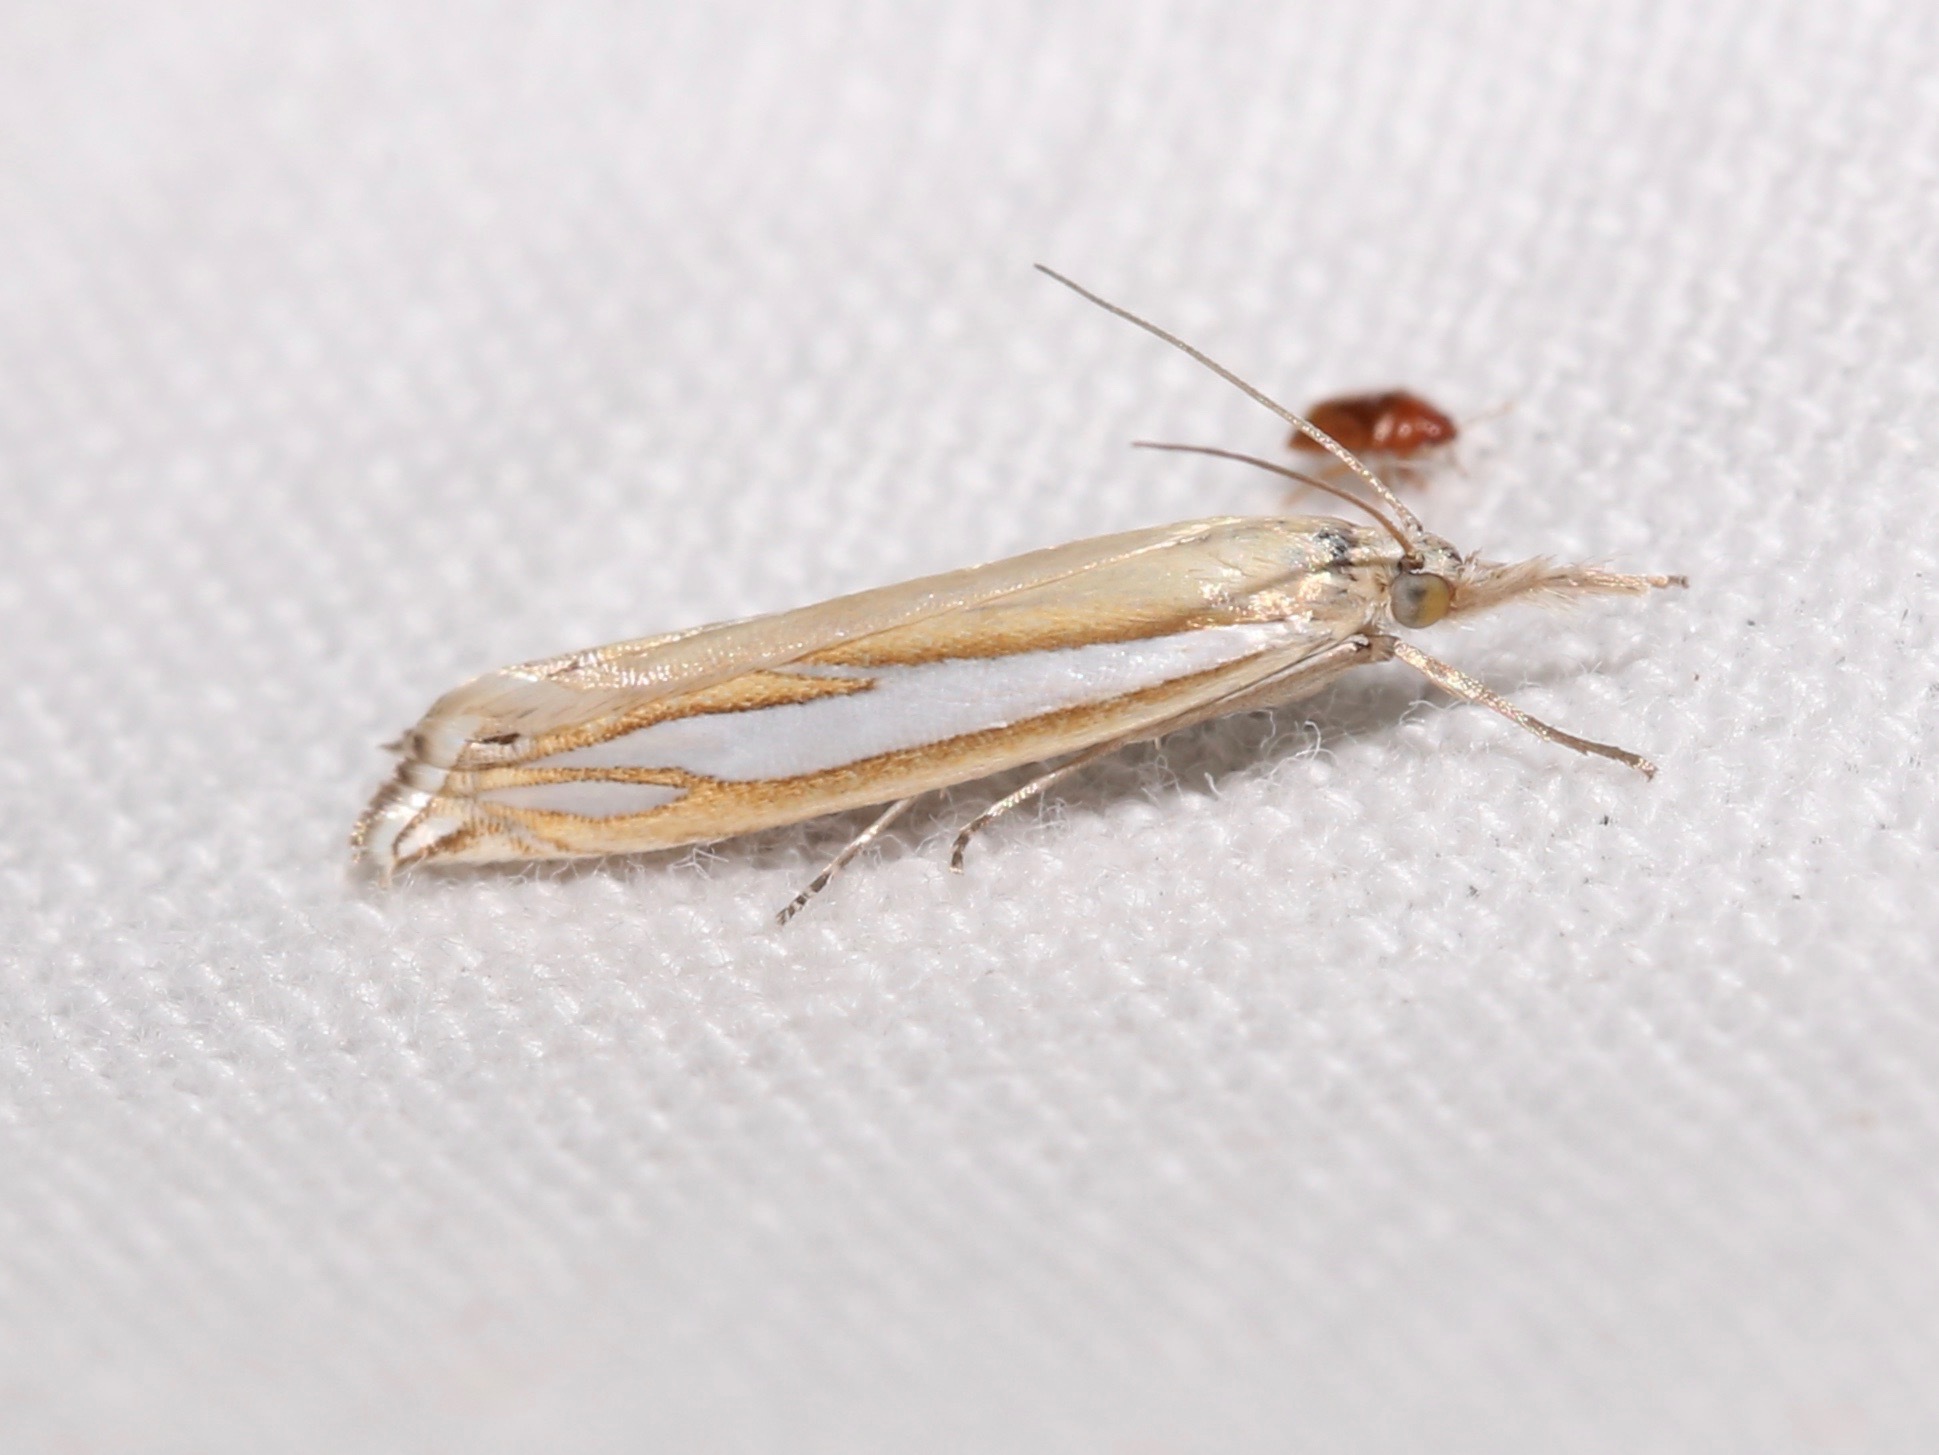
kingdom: Animalia
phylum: Arthropoda
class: Insecta
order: Lepidoptera
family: Crambidae
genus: Crambus
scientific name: Crambus satrapellus
